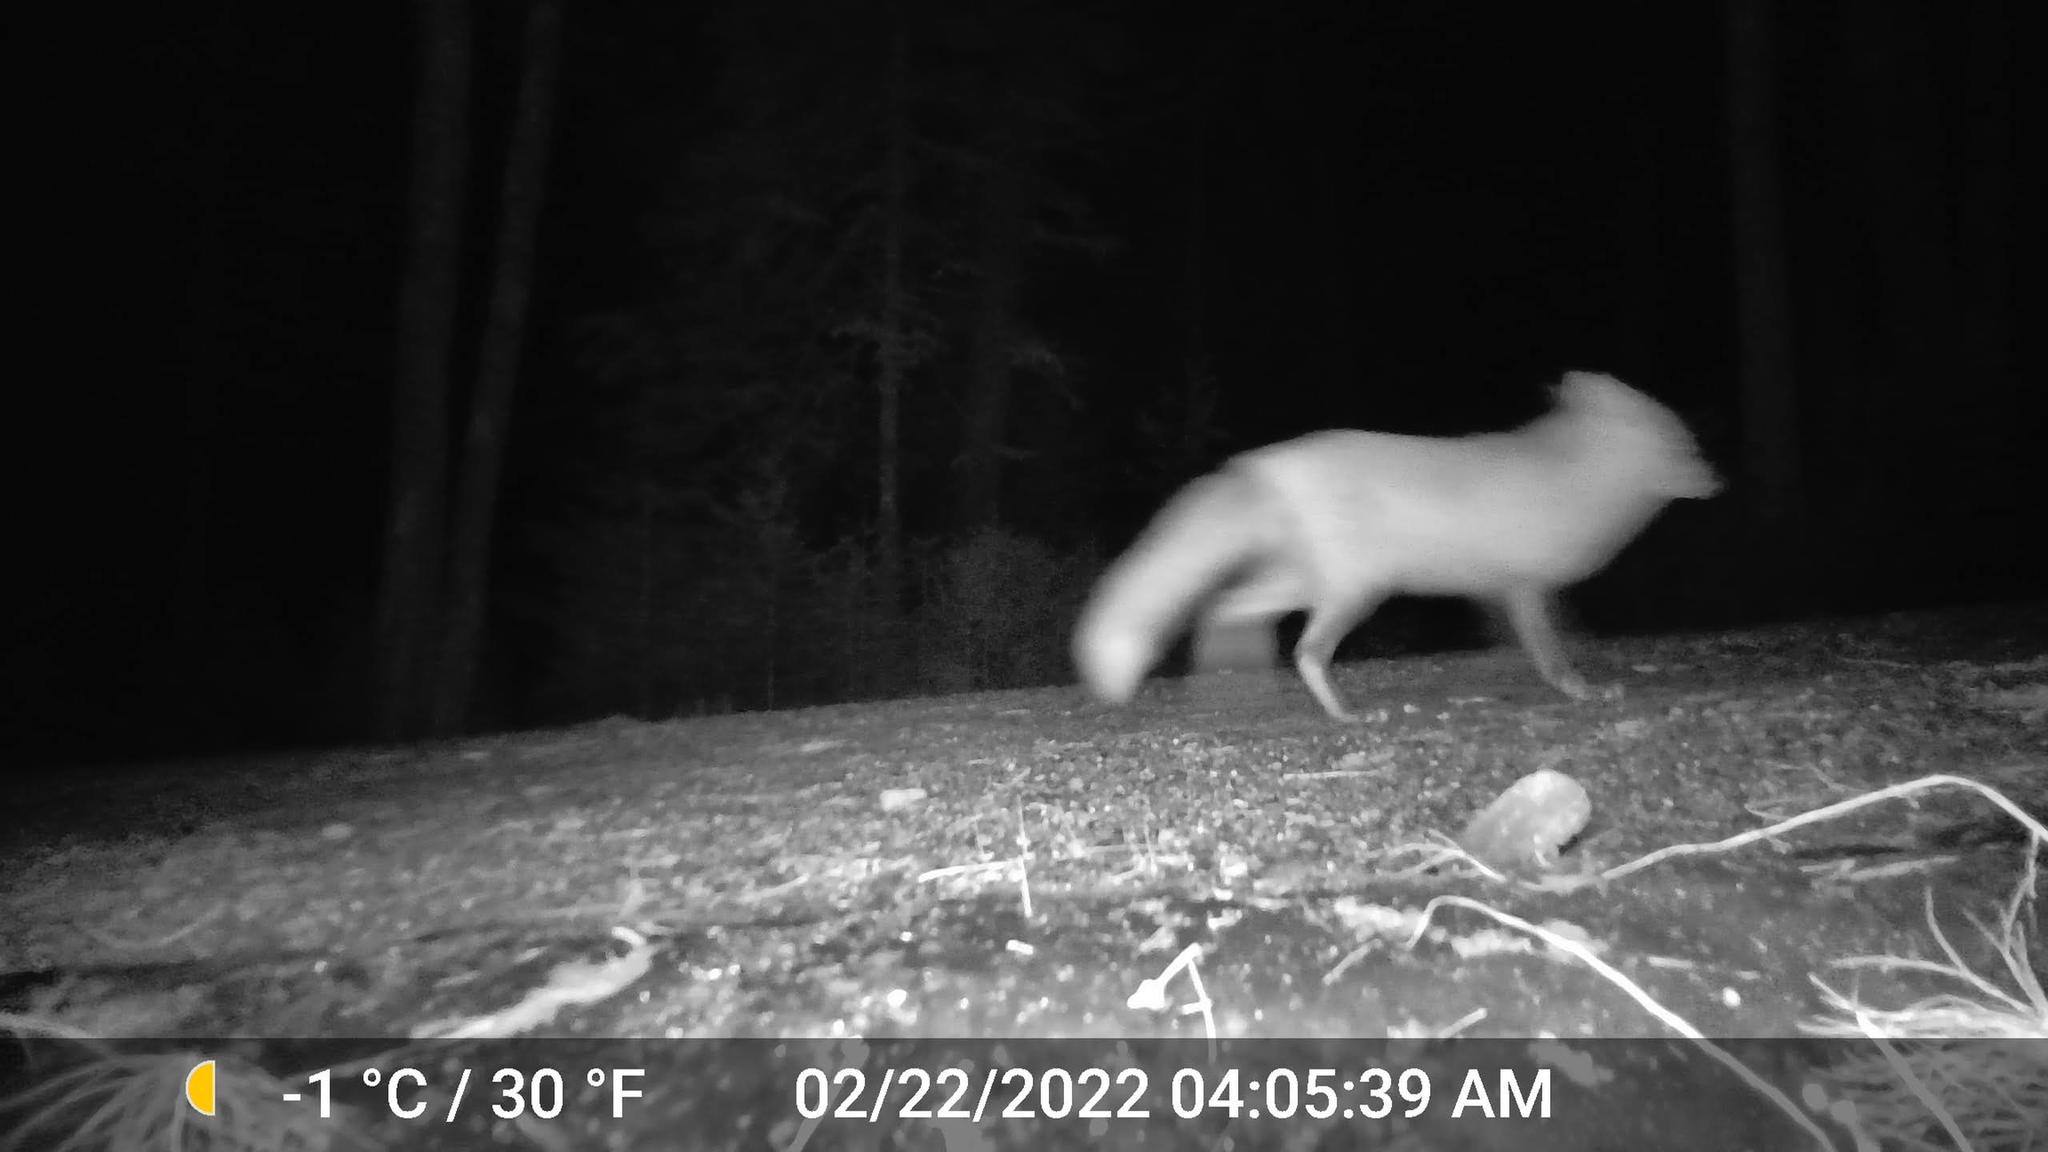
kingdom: Animalia
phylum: Chordata
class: Mammalia
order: Carnivora
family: Canidae
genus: Vulpes
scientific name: Vulpes vulpes
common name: Red fox
